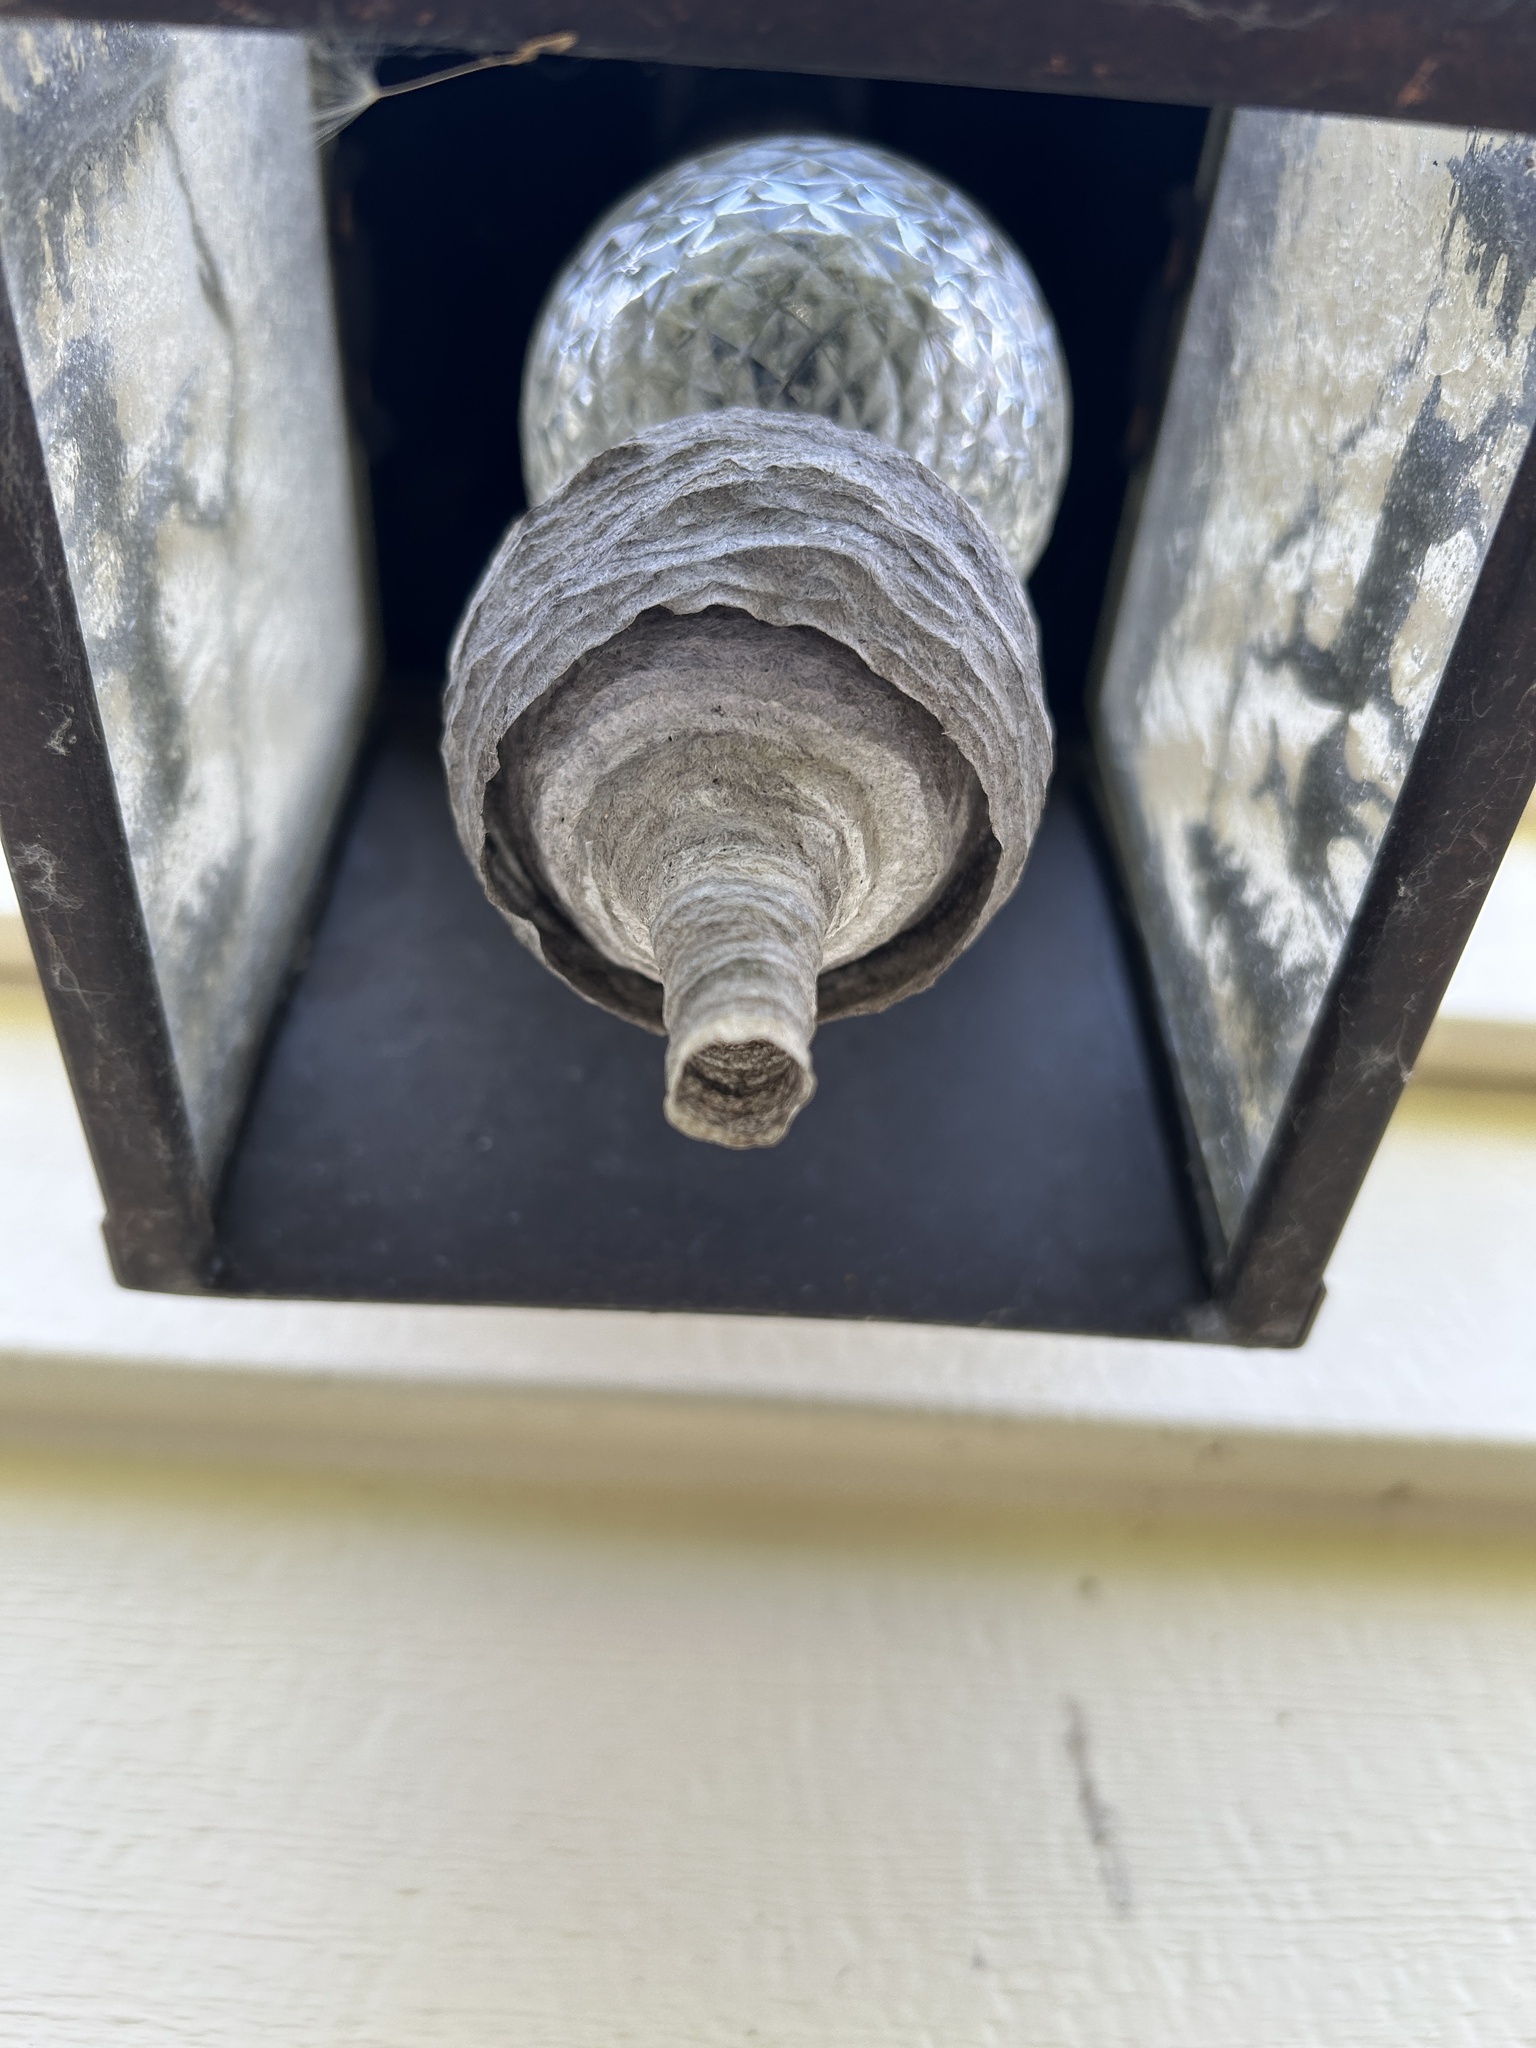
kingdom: Animalia
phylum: Arthropoda
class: Insecta
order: Hymenoptera
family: Vespidae
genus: Dolichovespula
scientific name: Dolichovespula maculata
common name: Bald-faced hornet
